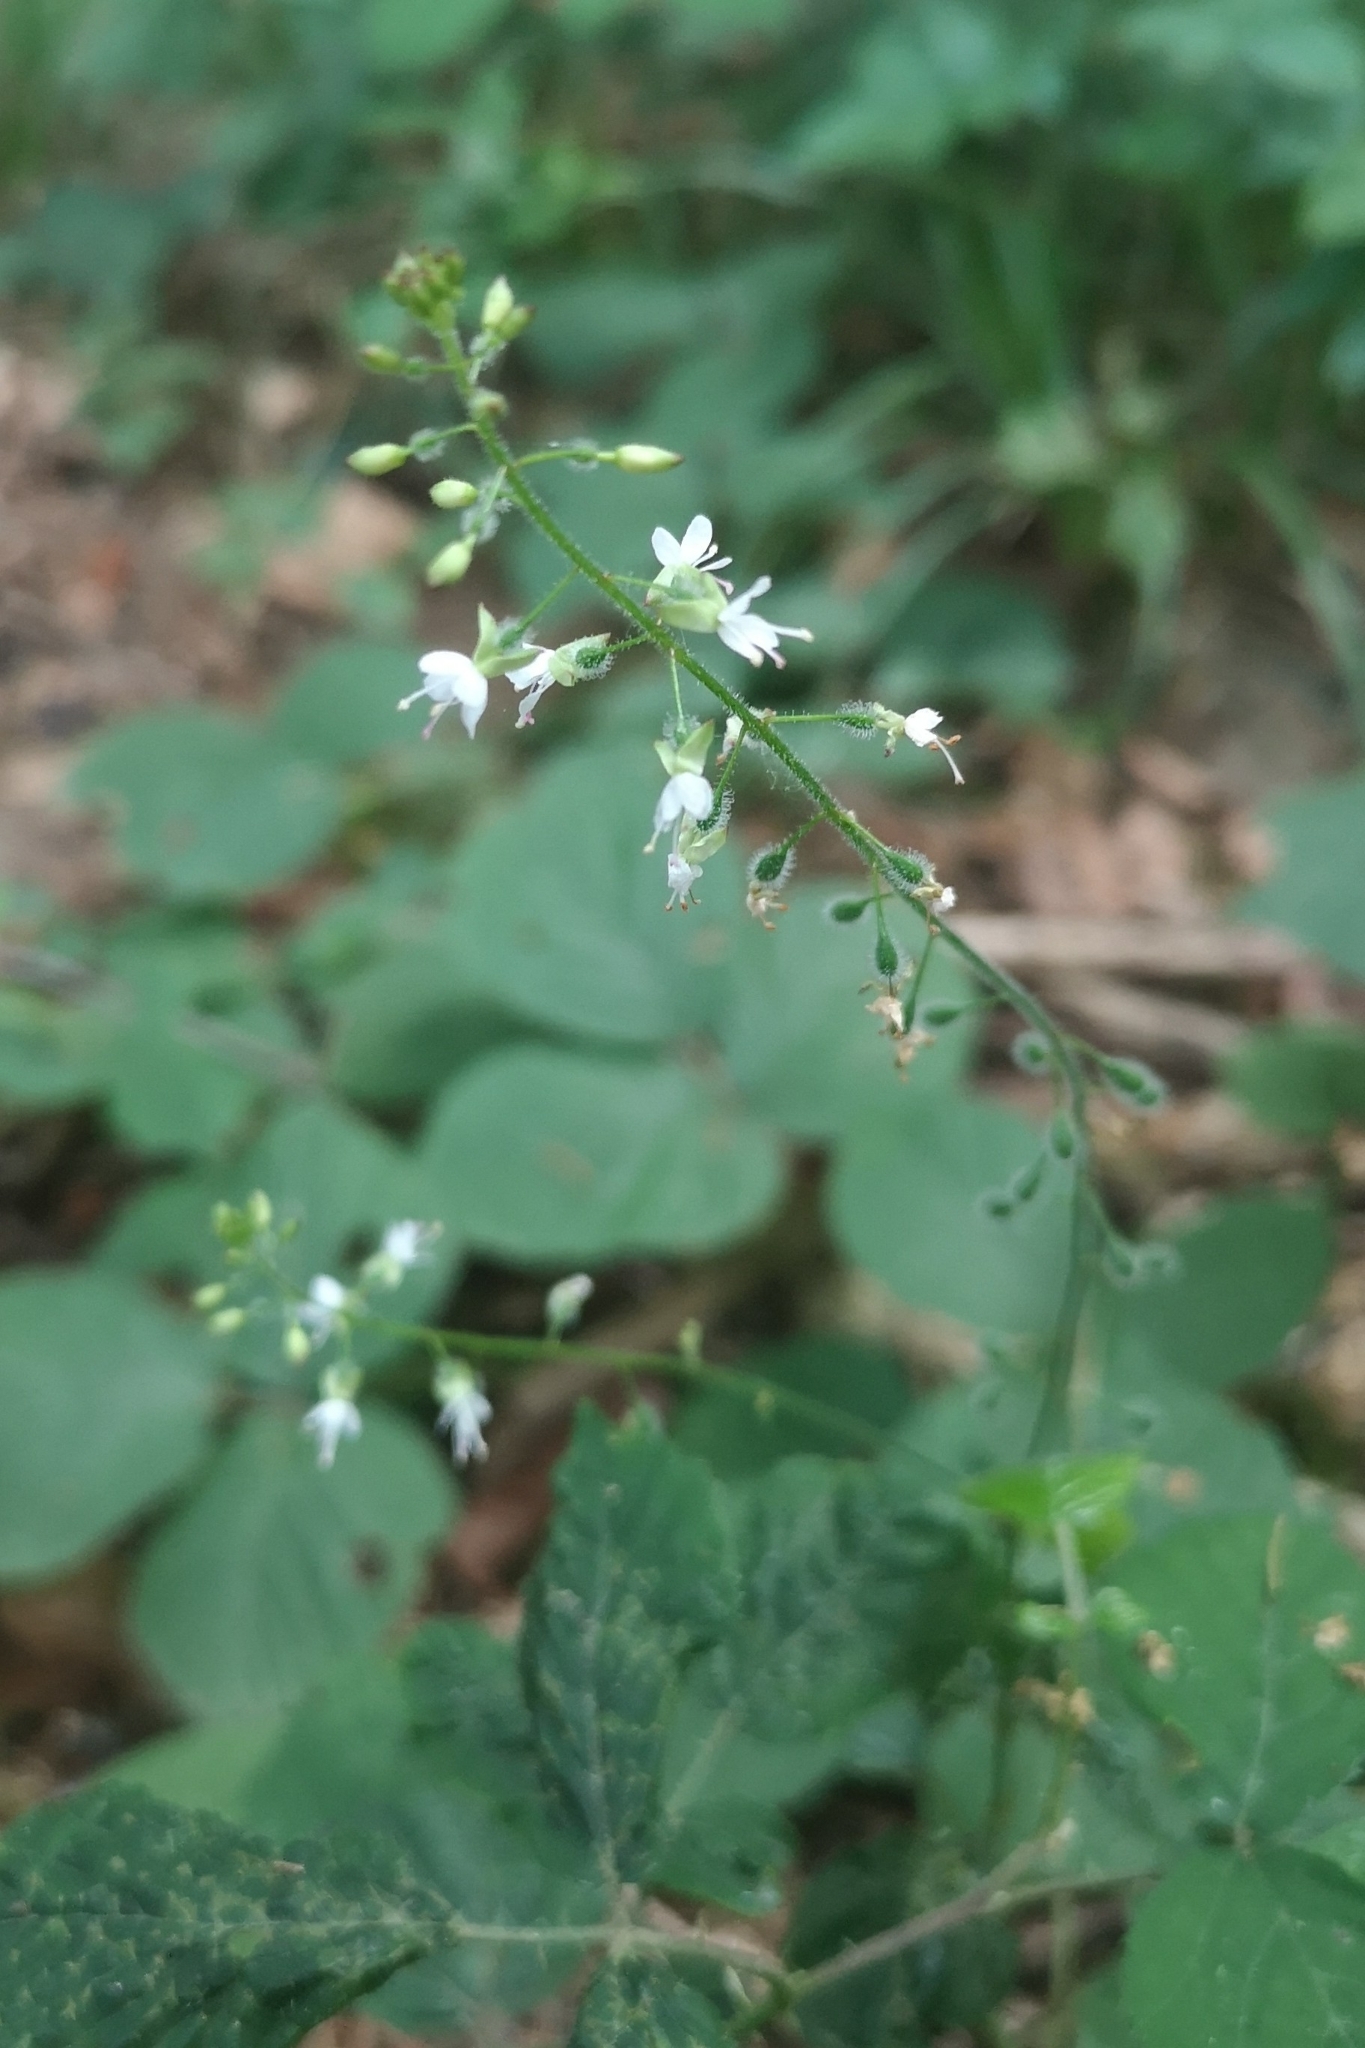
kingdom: Plantae
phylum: Tracheophyta
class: Magnoliopsida
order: Myrtales
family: Onagraceae
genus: Circaea
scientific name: Circaea lutetiana
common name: Enchanter's-nightshade
